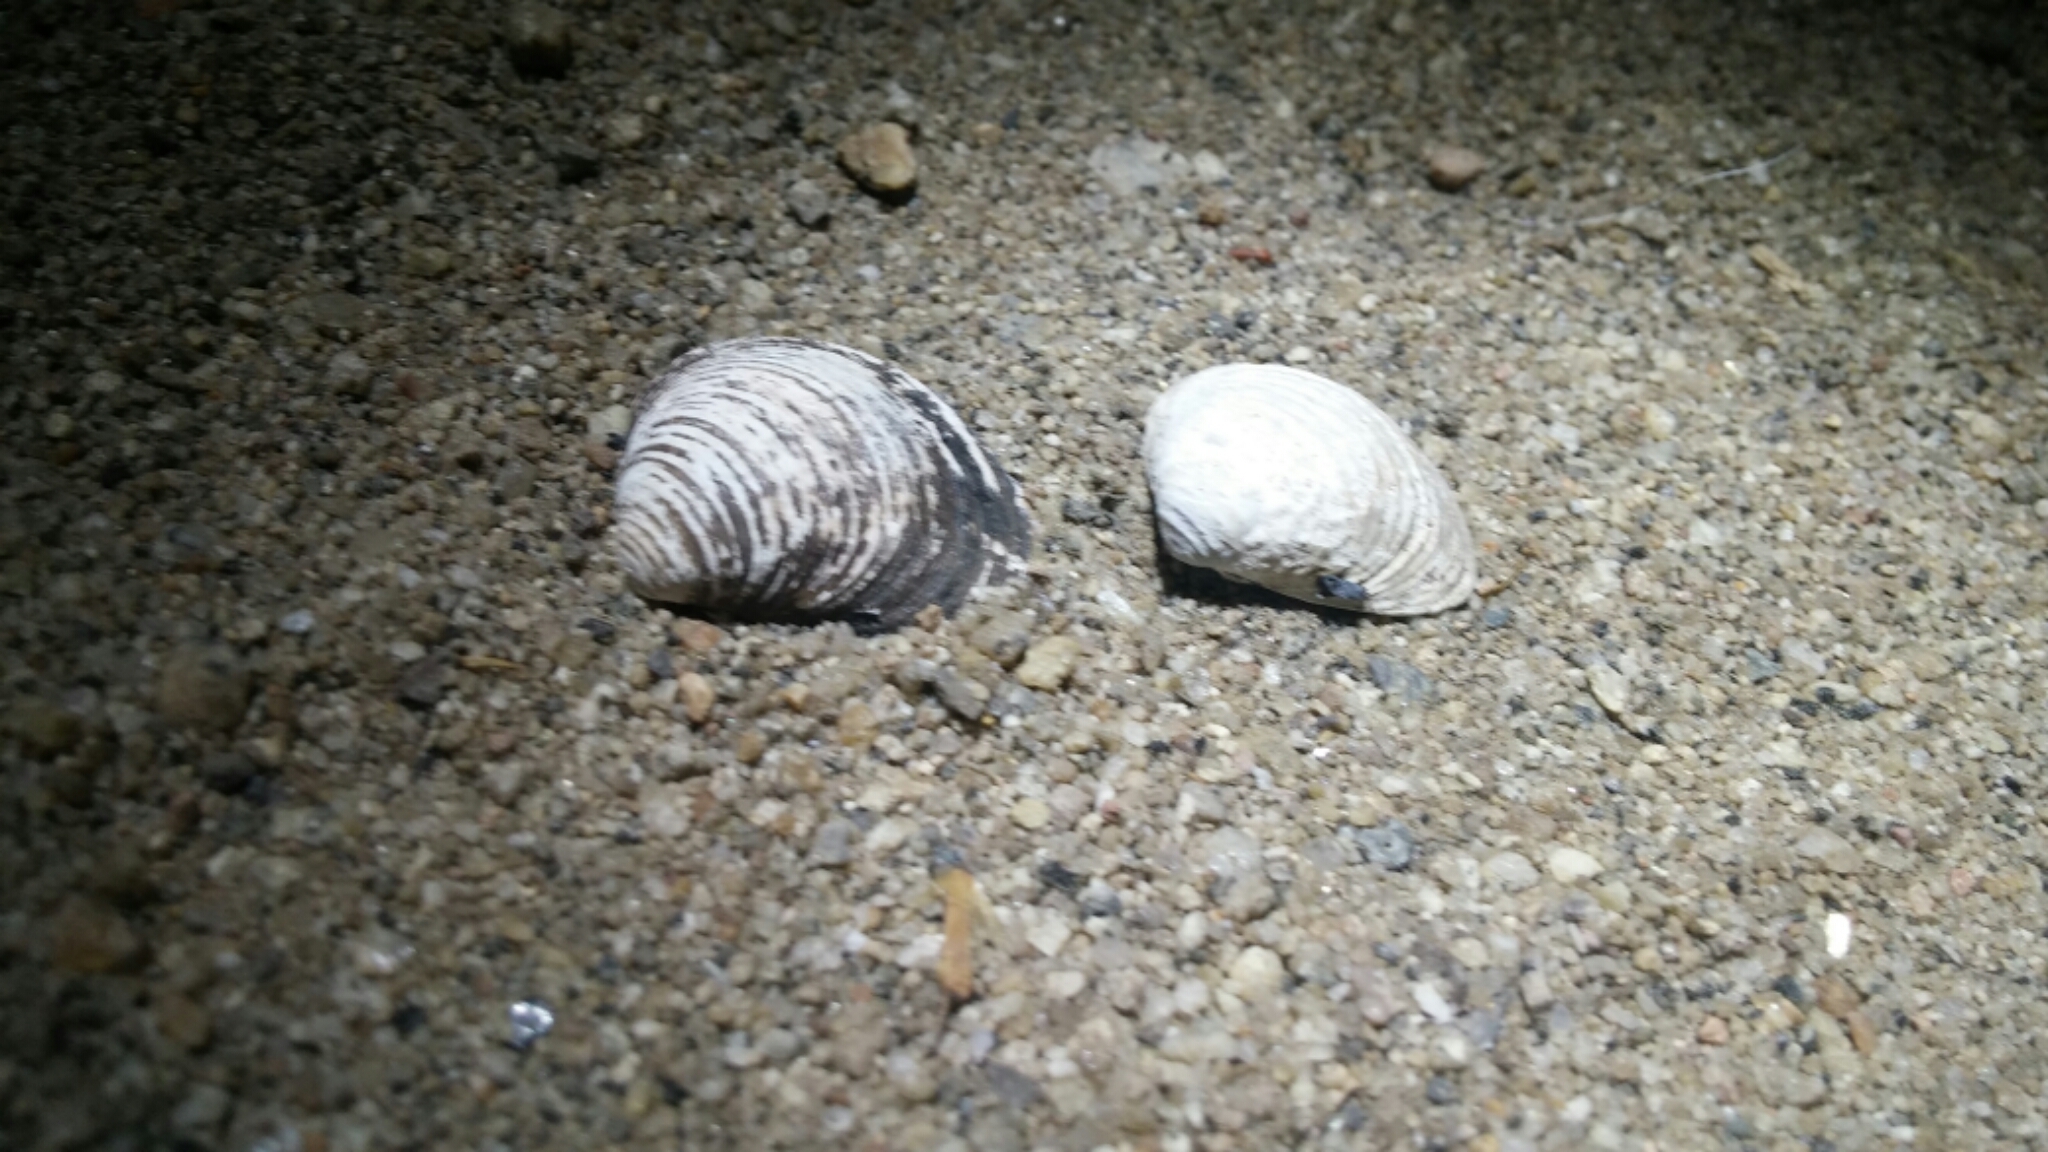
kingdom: Animalia
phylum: Mollusca
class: Bivalvia
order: Venerida
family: Cyrenidae
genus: Corbicula
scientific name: Corbicula fluminea
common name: Asian clam
